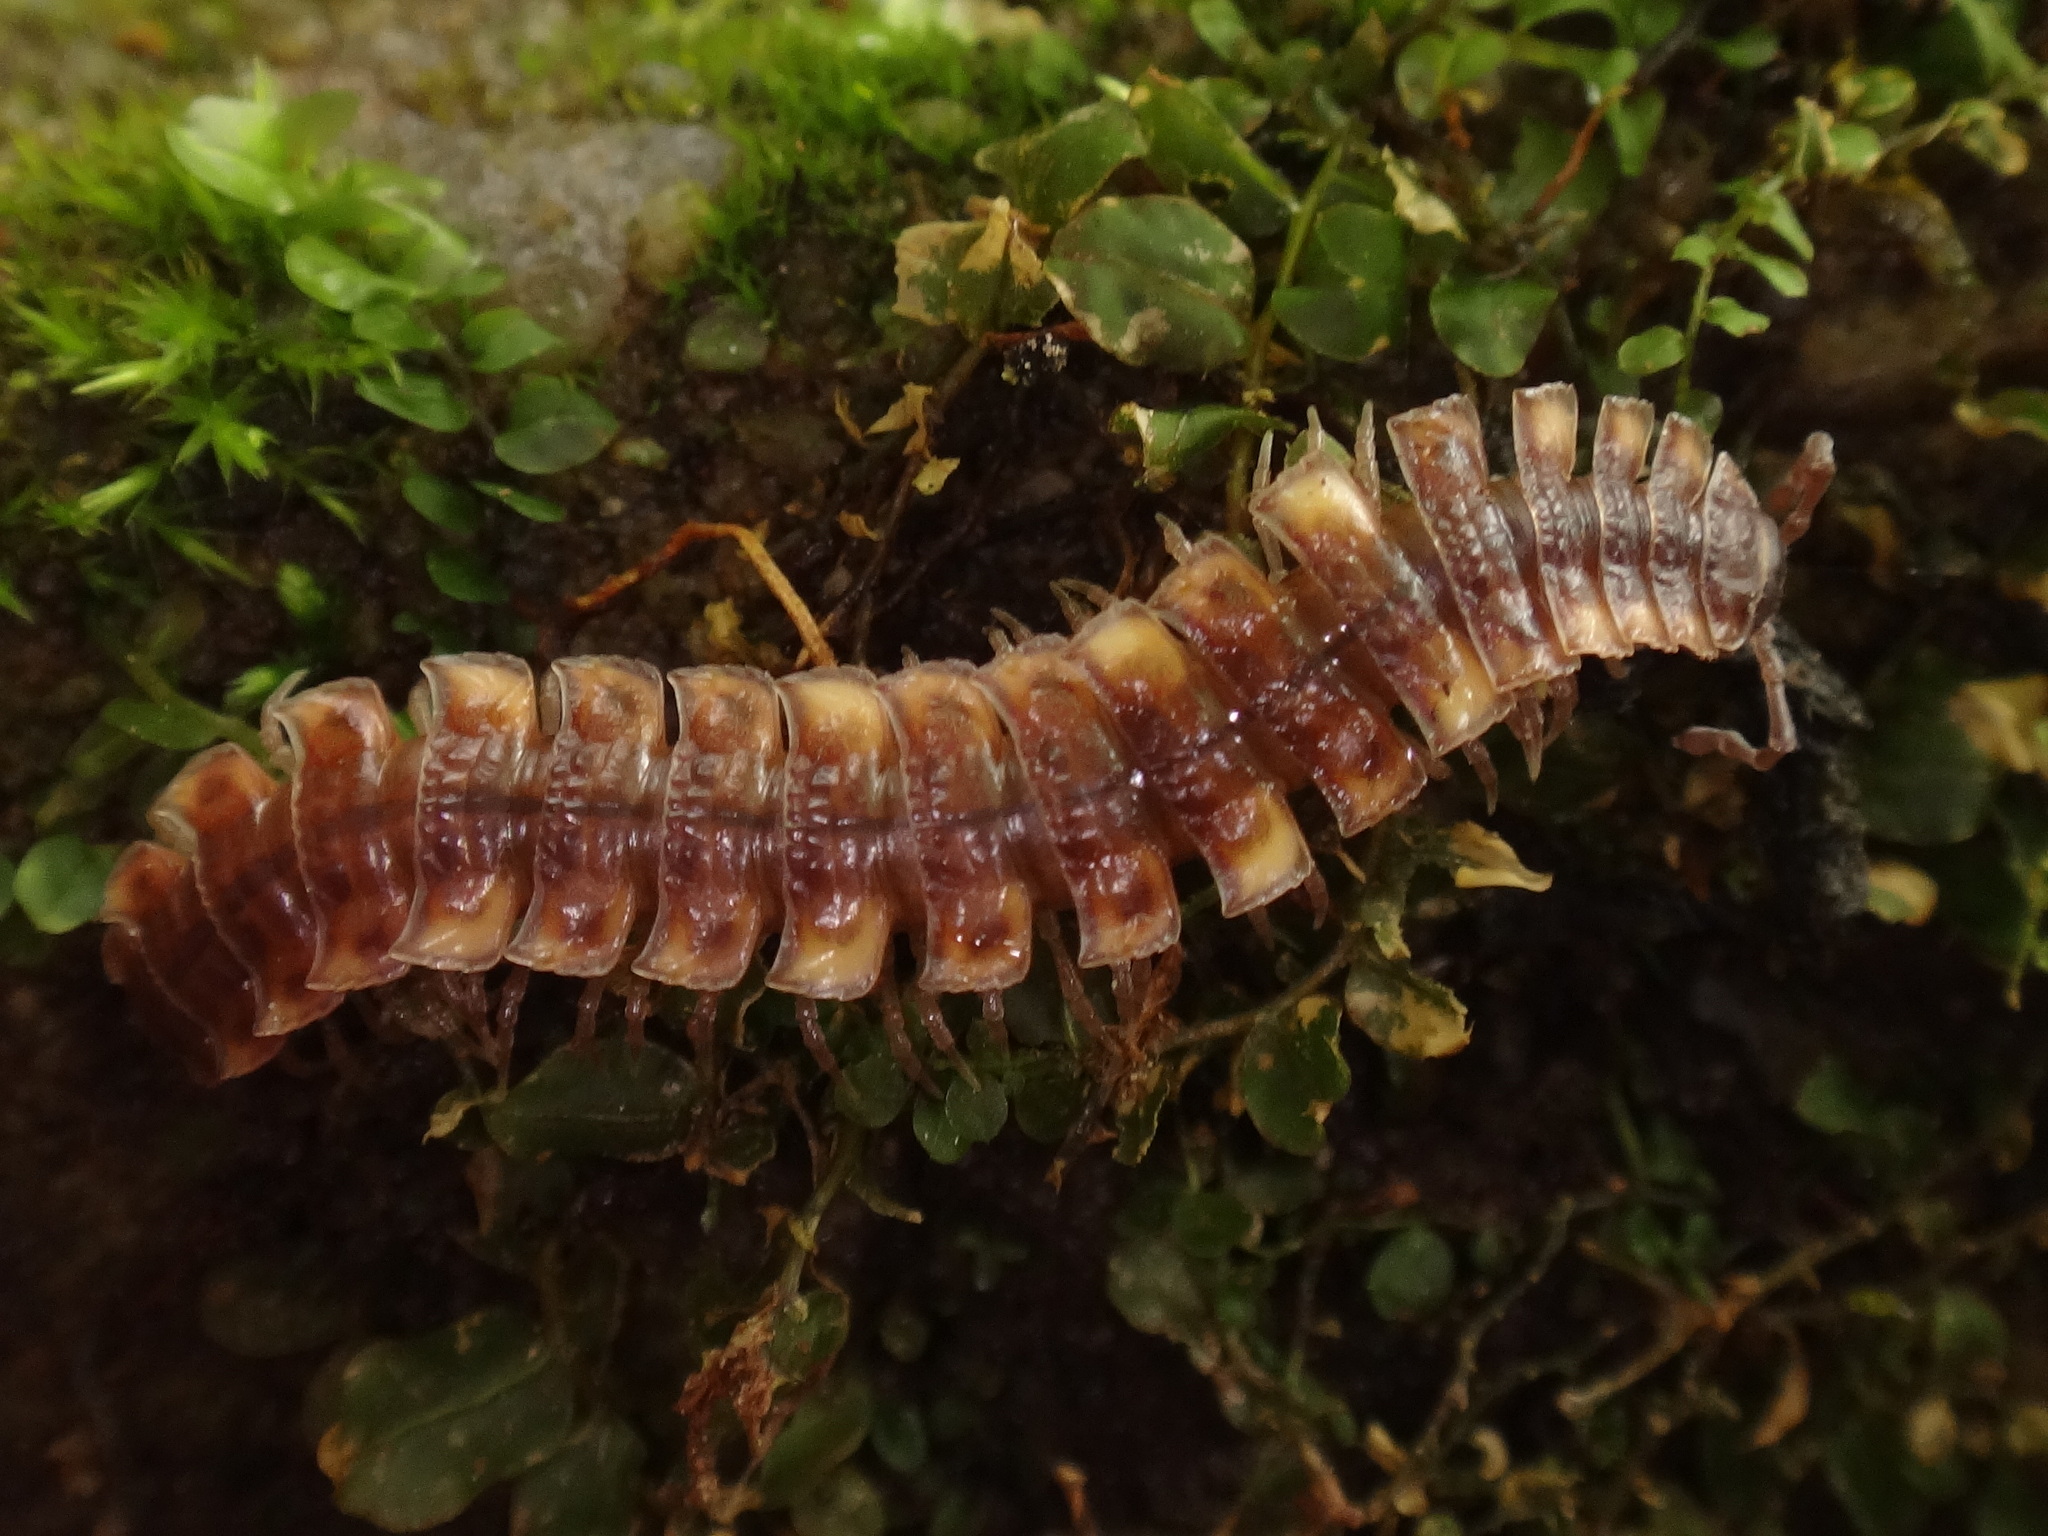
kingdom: Animalia
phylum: Arthropoda
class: Diplopoda
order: Polydesmida
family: Polydesmidae
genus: Polydesmus
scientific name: Polydesmus complanatus
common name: Flat-backed millipede
